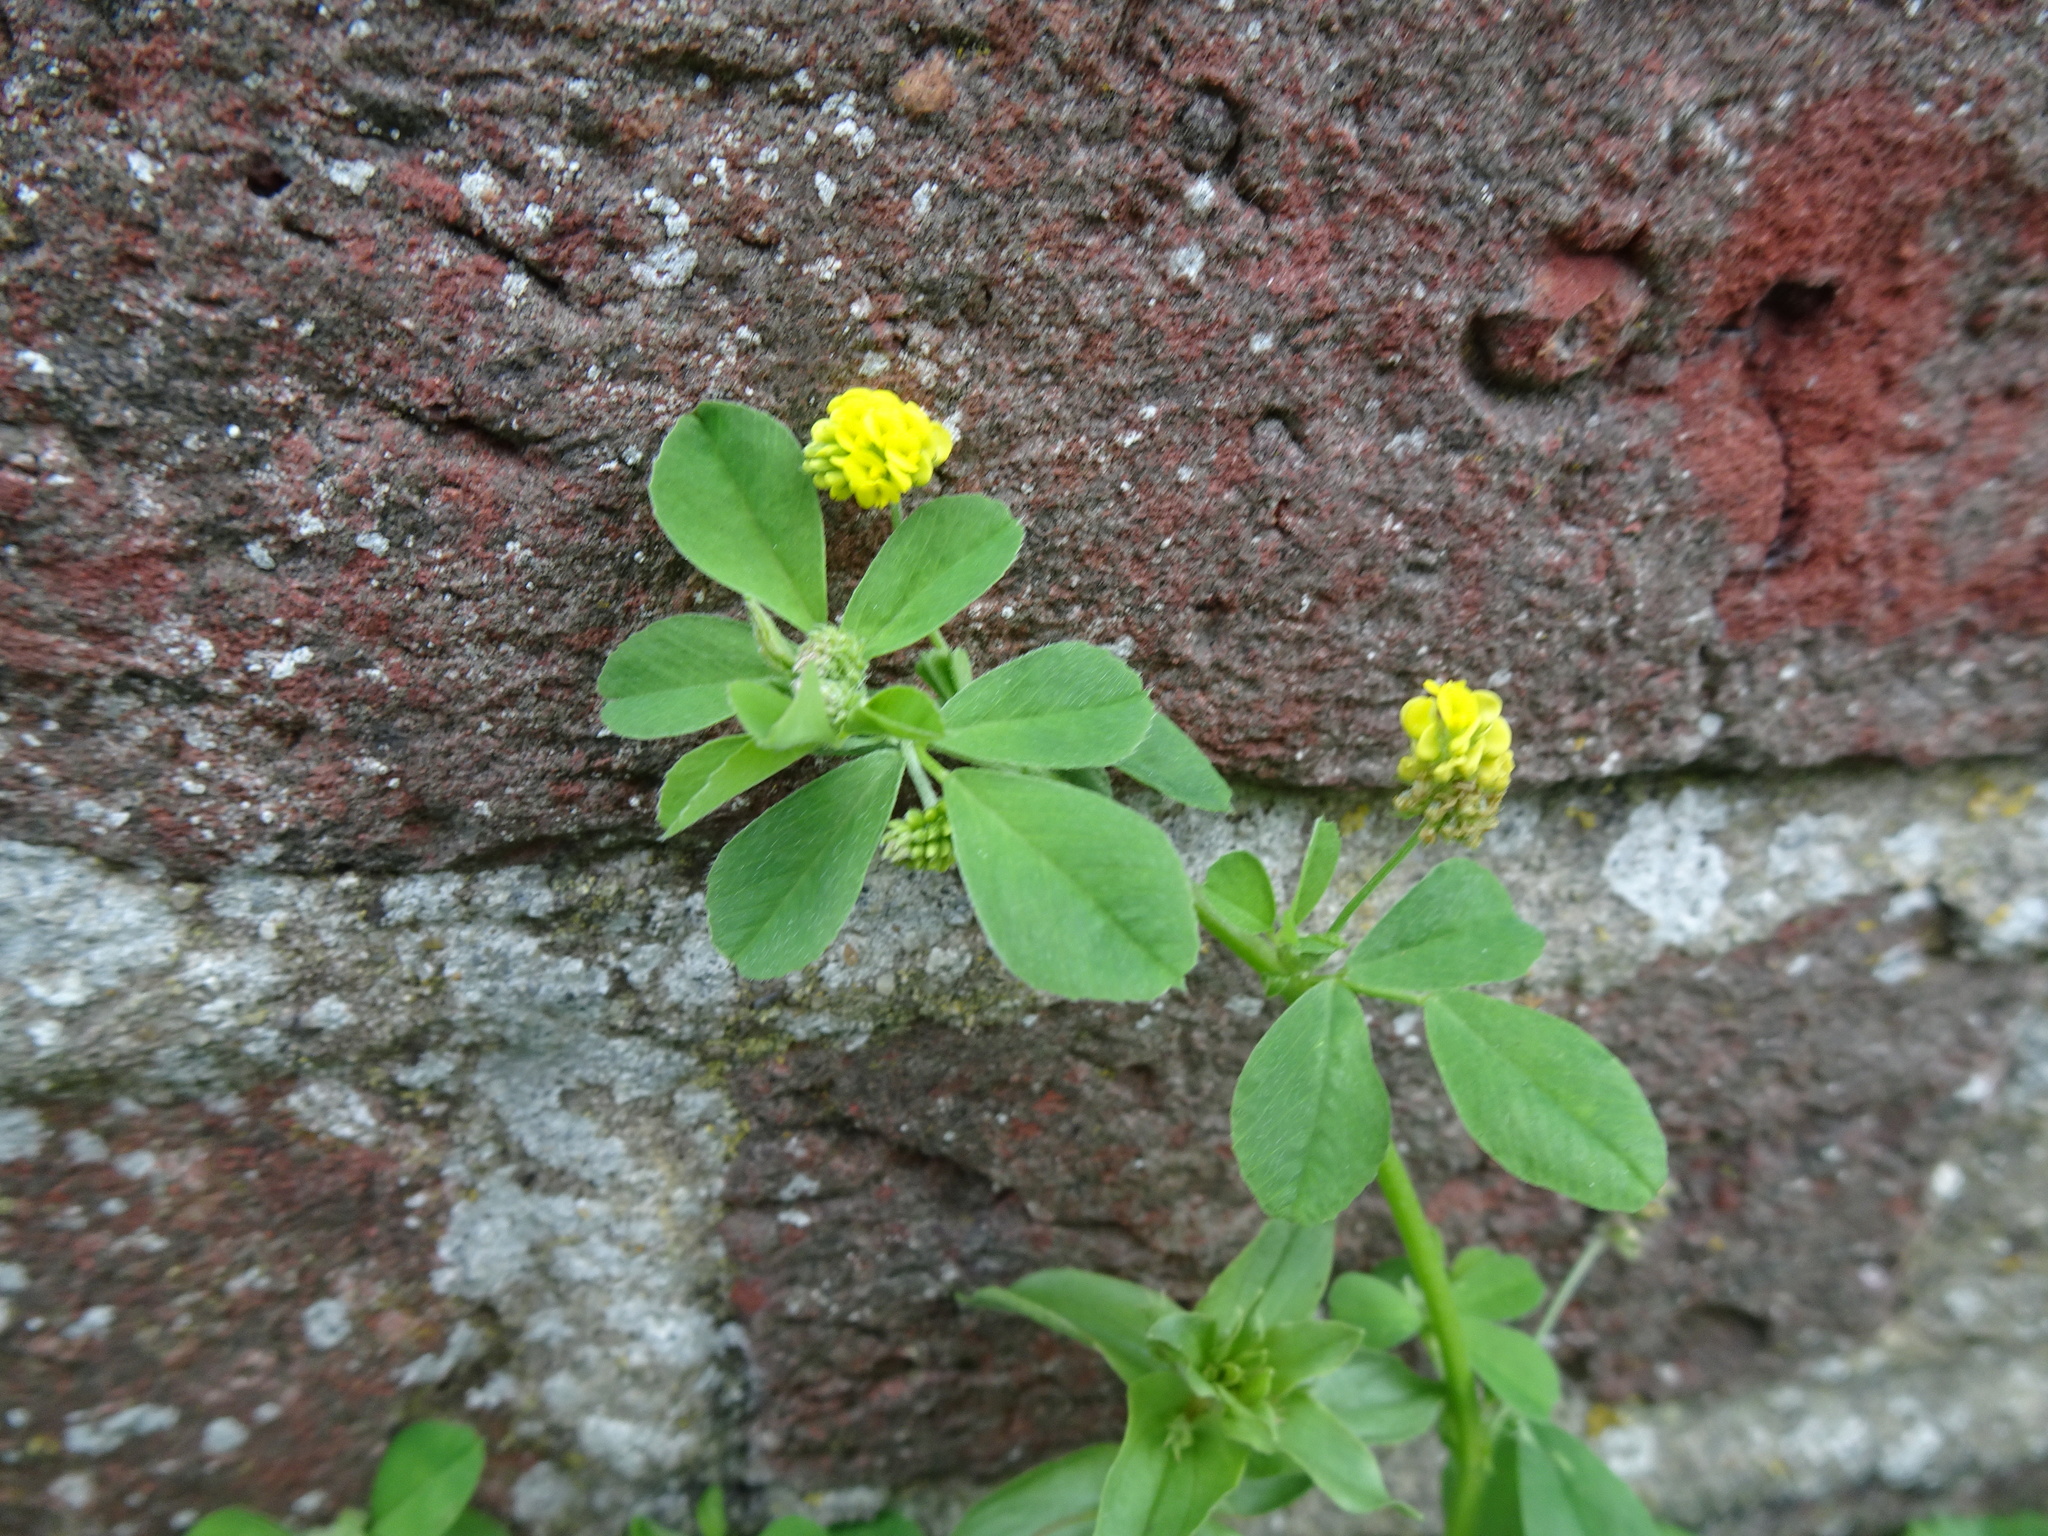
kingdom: Plantae
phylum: Tracheophyta
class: Magnoliopsida
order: Fabales
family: Fabaceae
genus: Medicago
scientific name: Medicago lupulina
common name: Black medick
